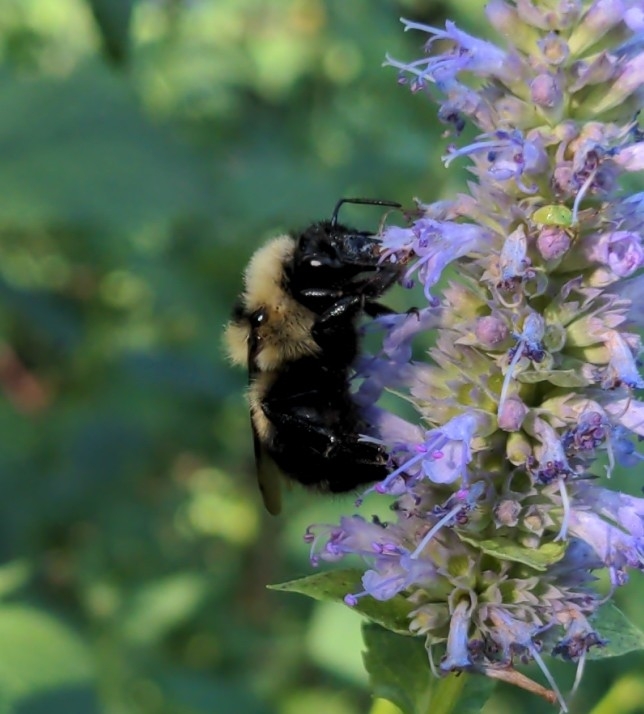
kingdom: Animalia
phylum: Arthropoda
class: Insecta
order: Hymenoptera
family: Apidae
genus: Bombus
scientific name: Bombus rufocinctus
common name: Red-belted bumble bee
